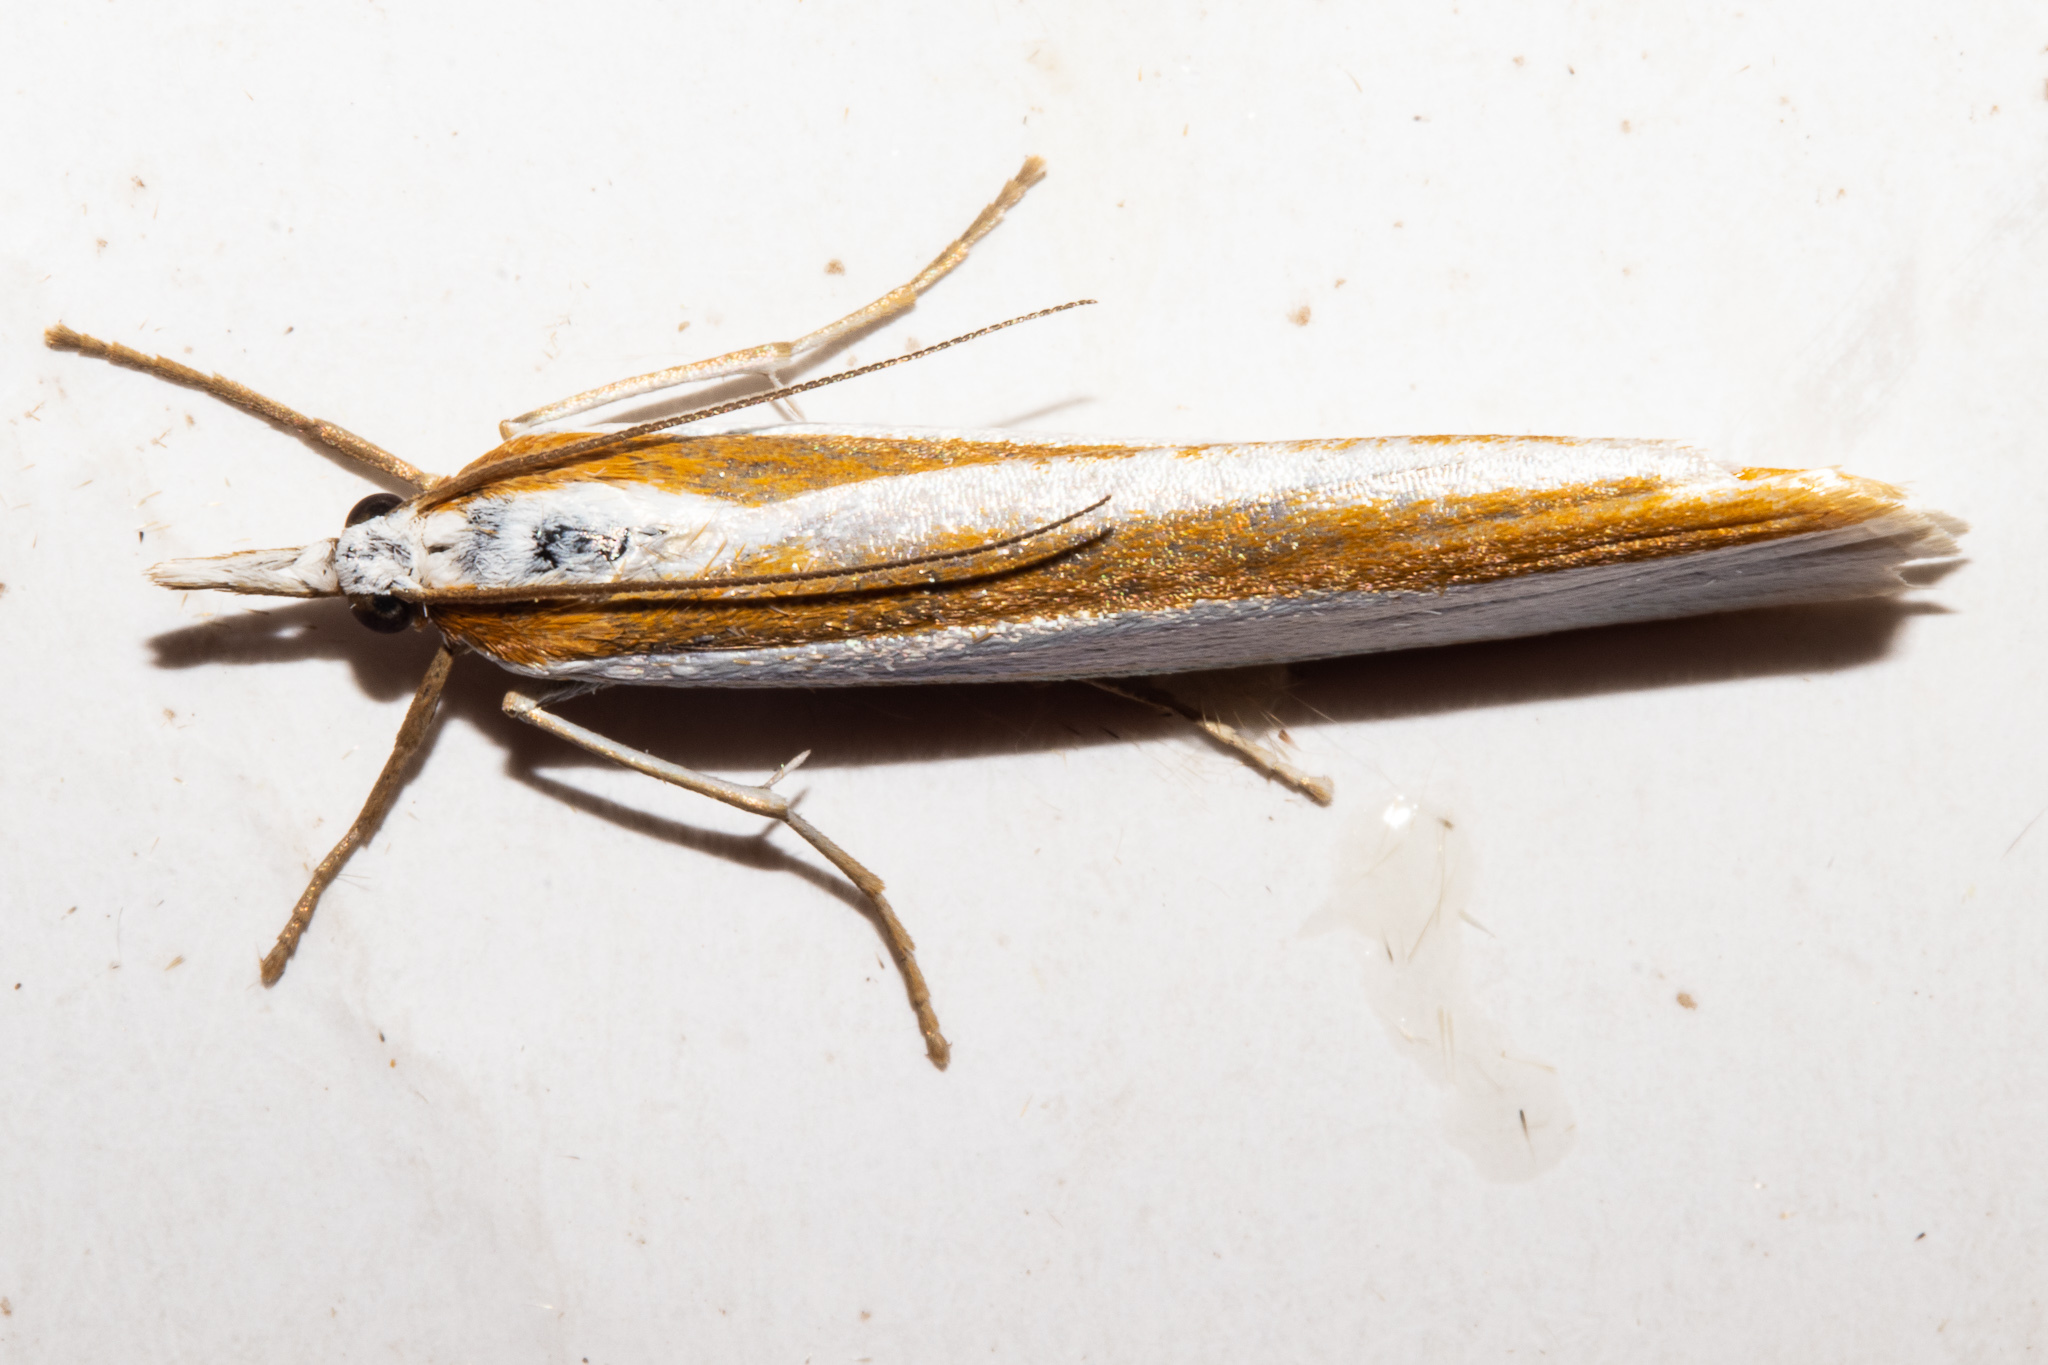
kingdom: Animalia
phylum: Arthropoda
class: Insecta
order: Lepidoptera
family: Crambidae
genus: Orocrambus
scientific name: Orocrambus ephorus
